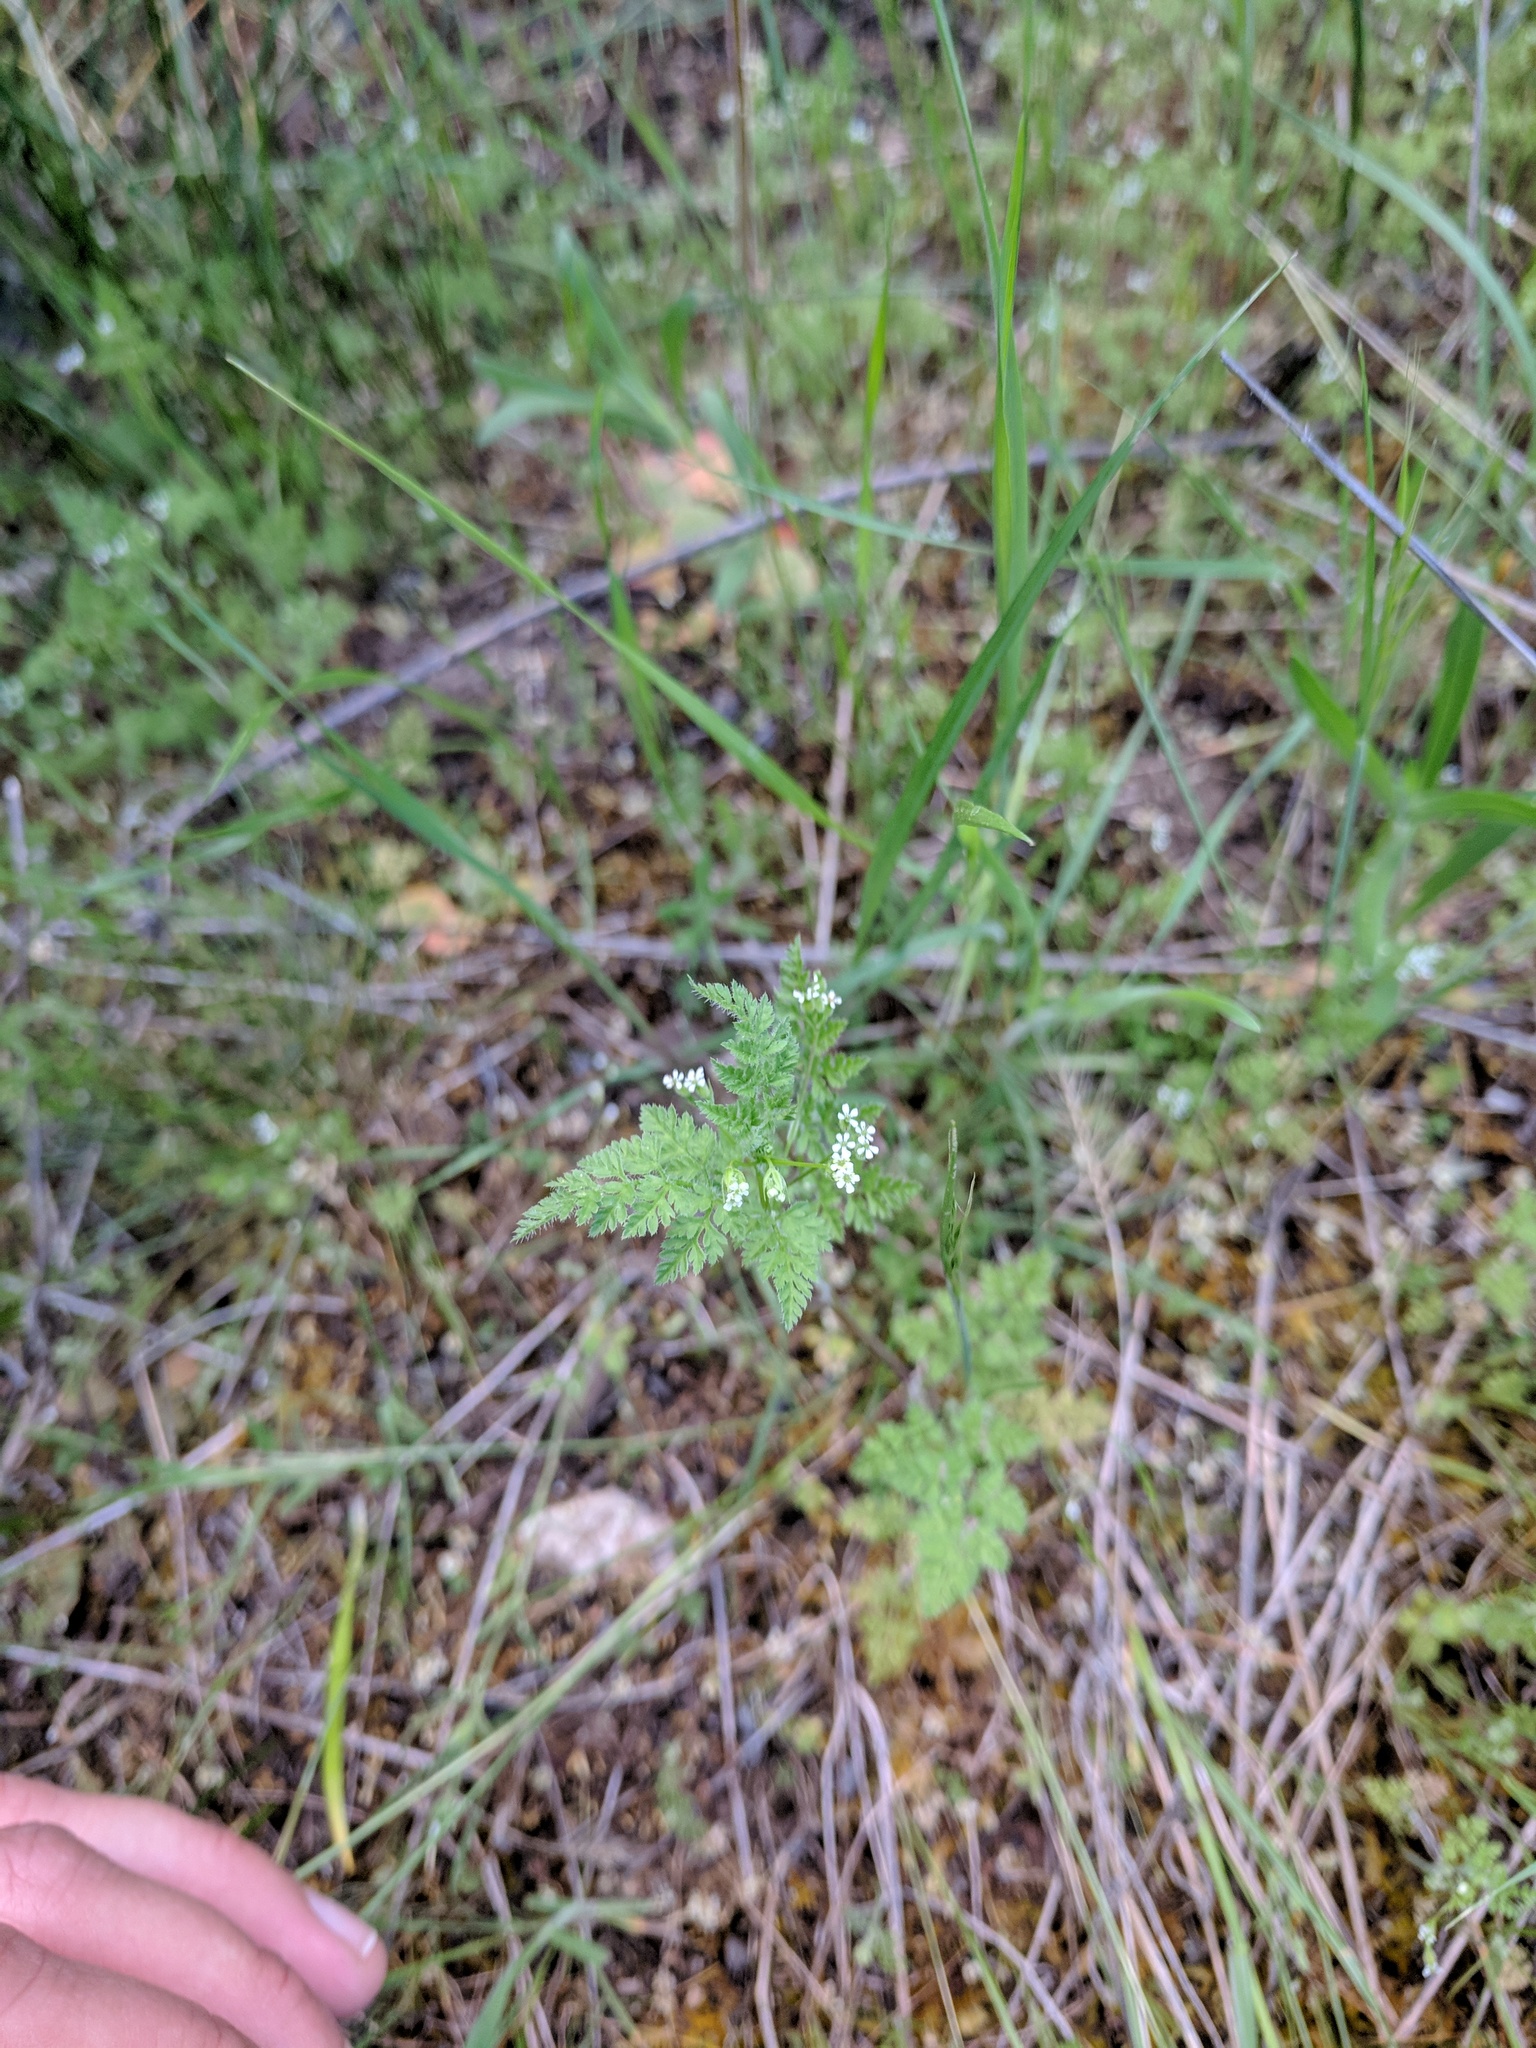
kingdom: Plantae
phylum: Tracheophyta
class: Magnoliopsida
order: Apiales
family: Apiaceae
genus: Anthriscus
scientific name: Anthriscus caucalis
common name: Bur chervil
